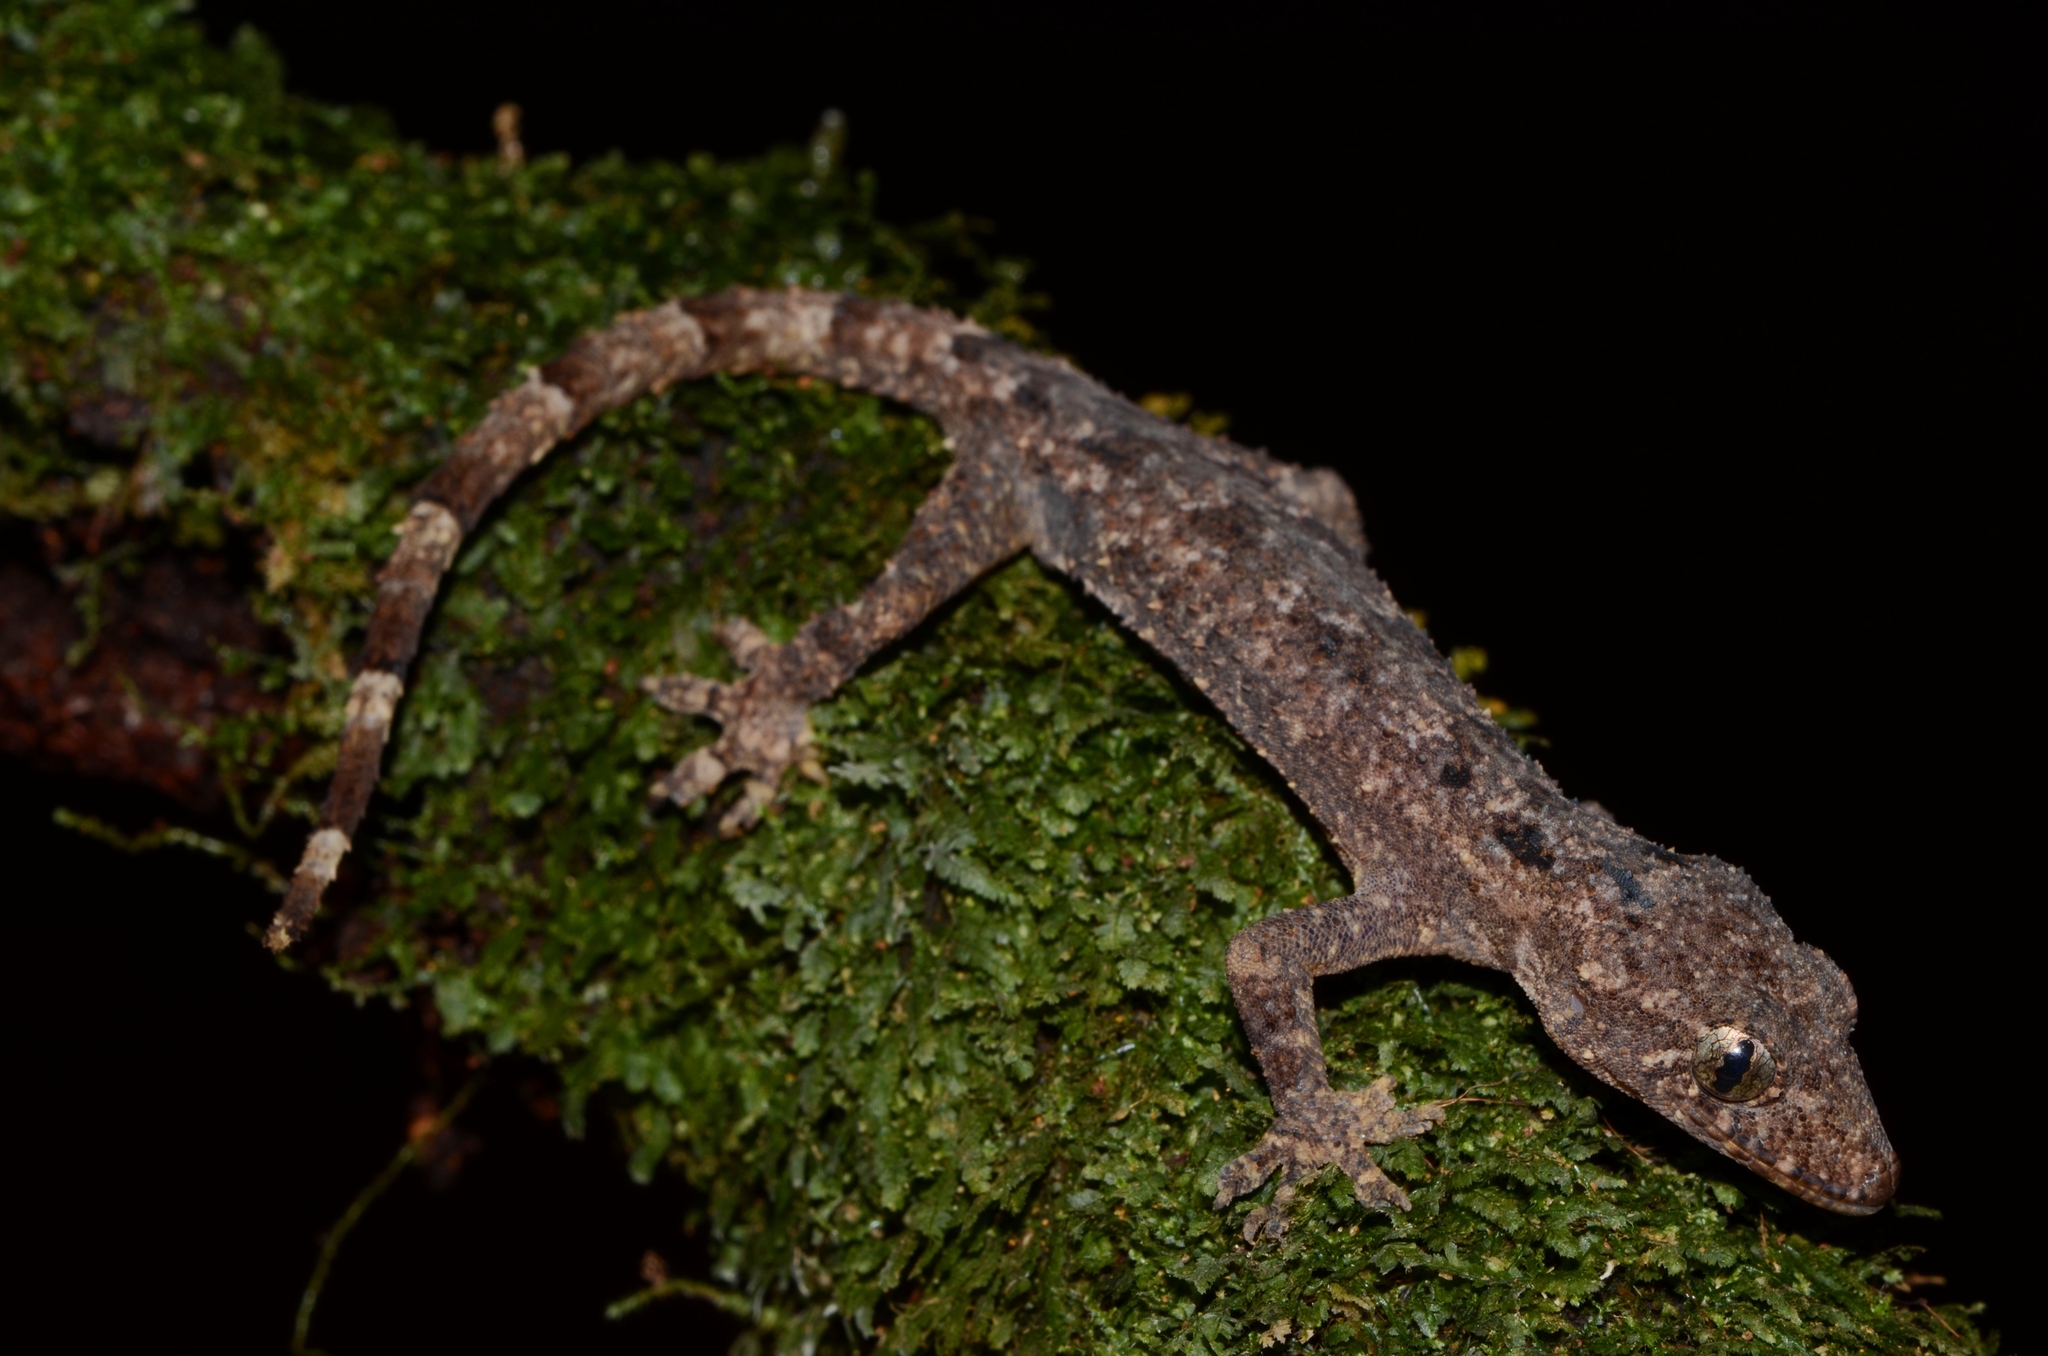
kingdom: Animalia
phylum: Chordata
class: Squamata
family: Gekkonidae
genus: Hemidactylus
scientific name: Hemidactylus muriceus
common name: Guinea leaf-toed gecko
